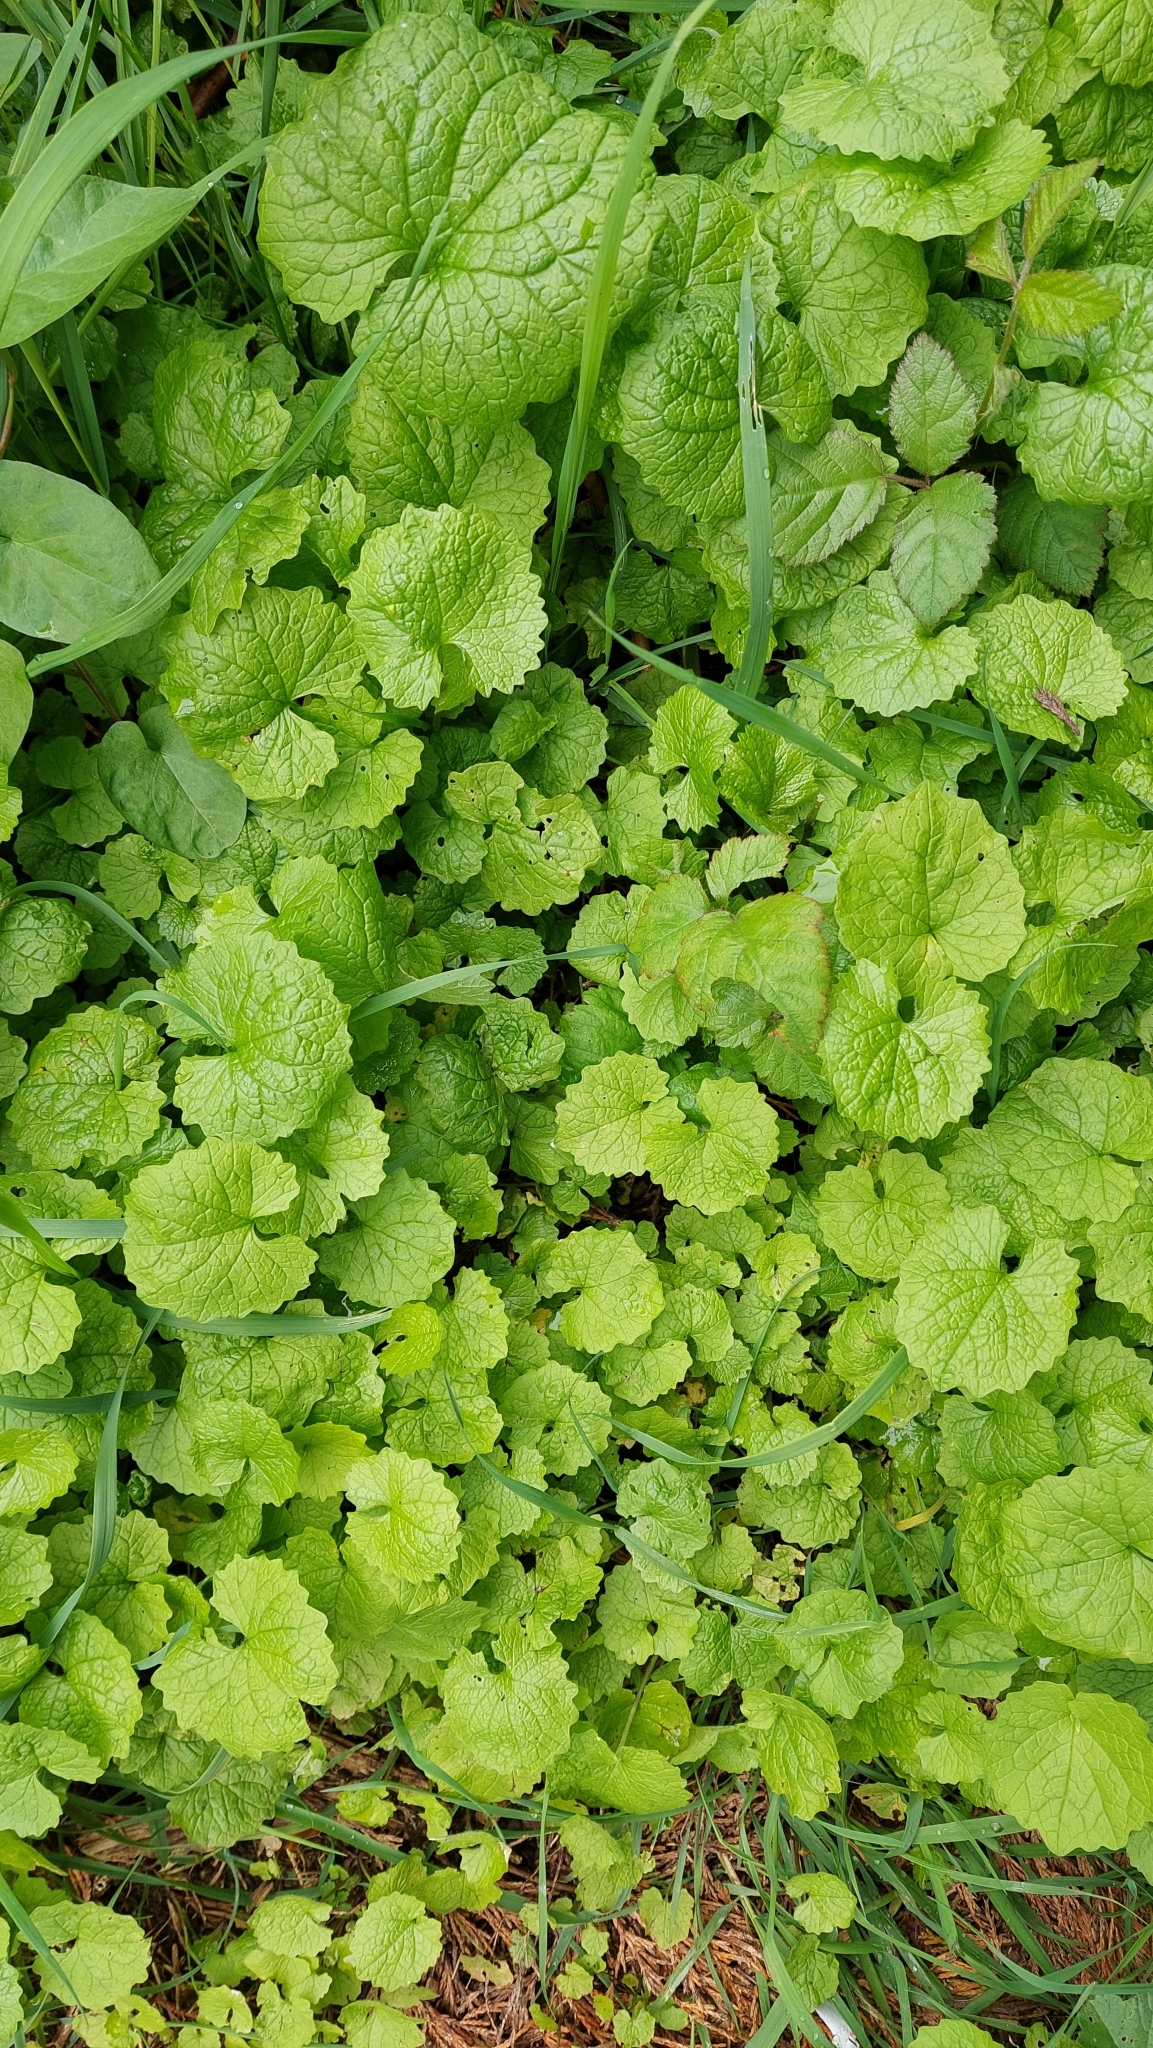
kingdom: Plantae
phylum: Tracheophyta
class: Magnoliopsida
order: Brassicales
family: Brassicaceae
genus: Alliaria
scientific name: Alliaria petiolata
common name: Garlic mustard
